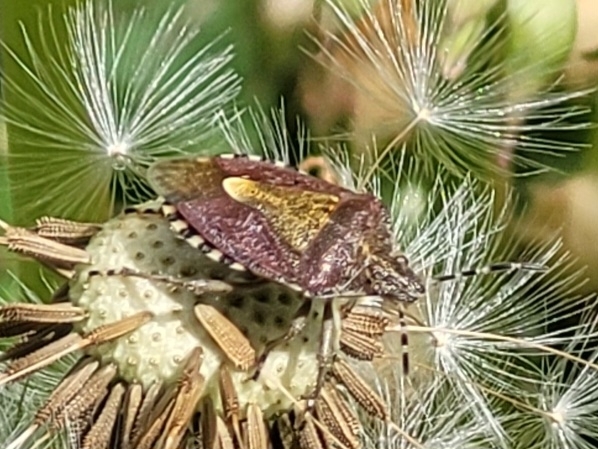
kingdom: Animalia
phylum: Arthropoda
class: Insecta
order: Hemiptera
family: Pentatomidae
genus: Dolycoris
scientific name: Dolycoris baccarum
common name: Sloe bug
